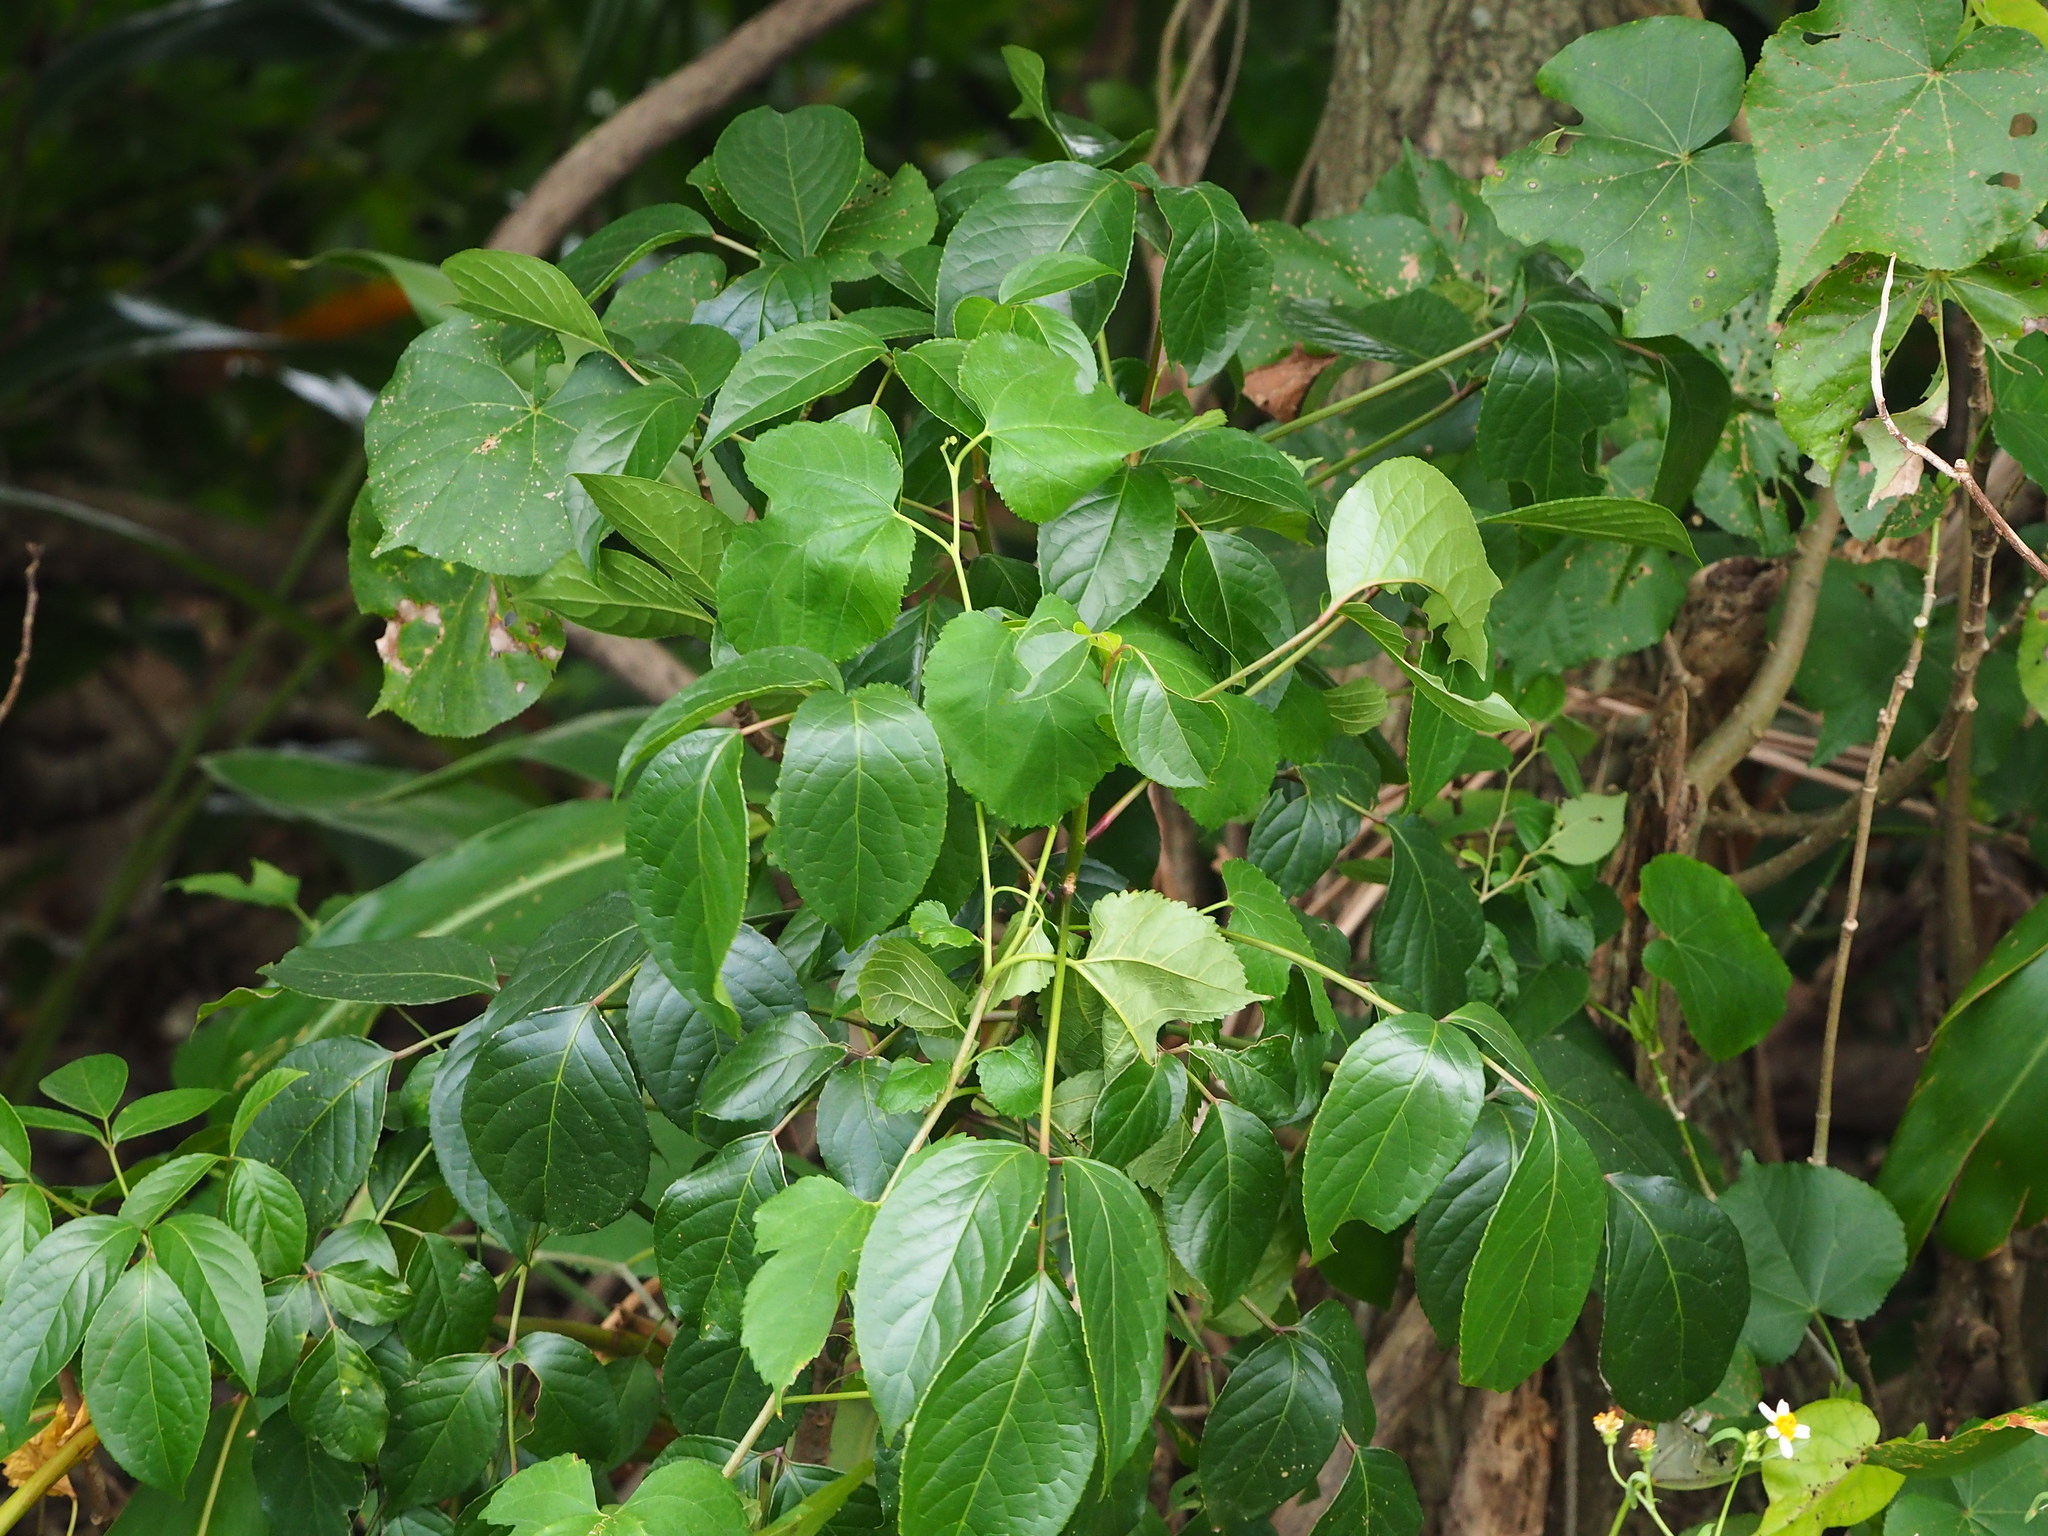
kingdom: Plantae
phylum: Tracheophyta
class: Magnoliopsida
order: Malpighiales
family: Phyllanthaceae
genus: Bischofia
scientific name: Bischofia javanica
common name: Javanese bishopwood
